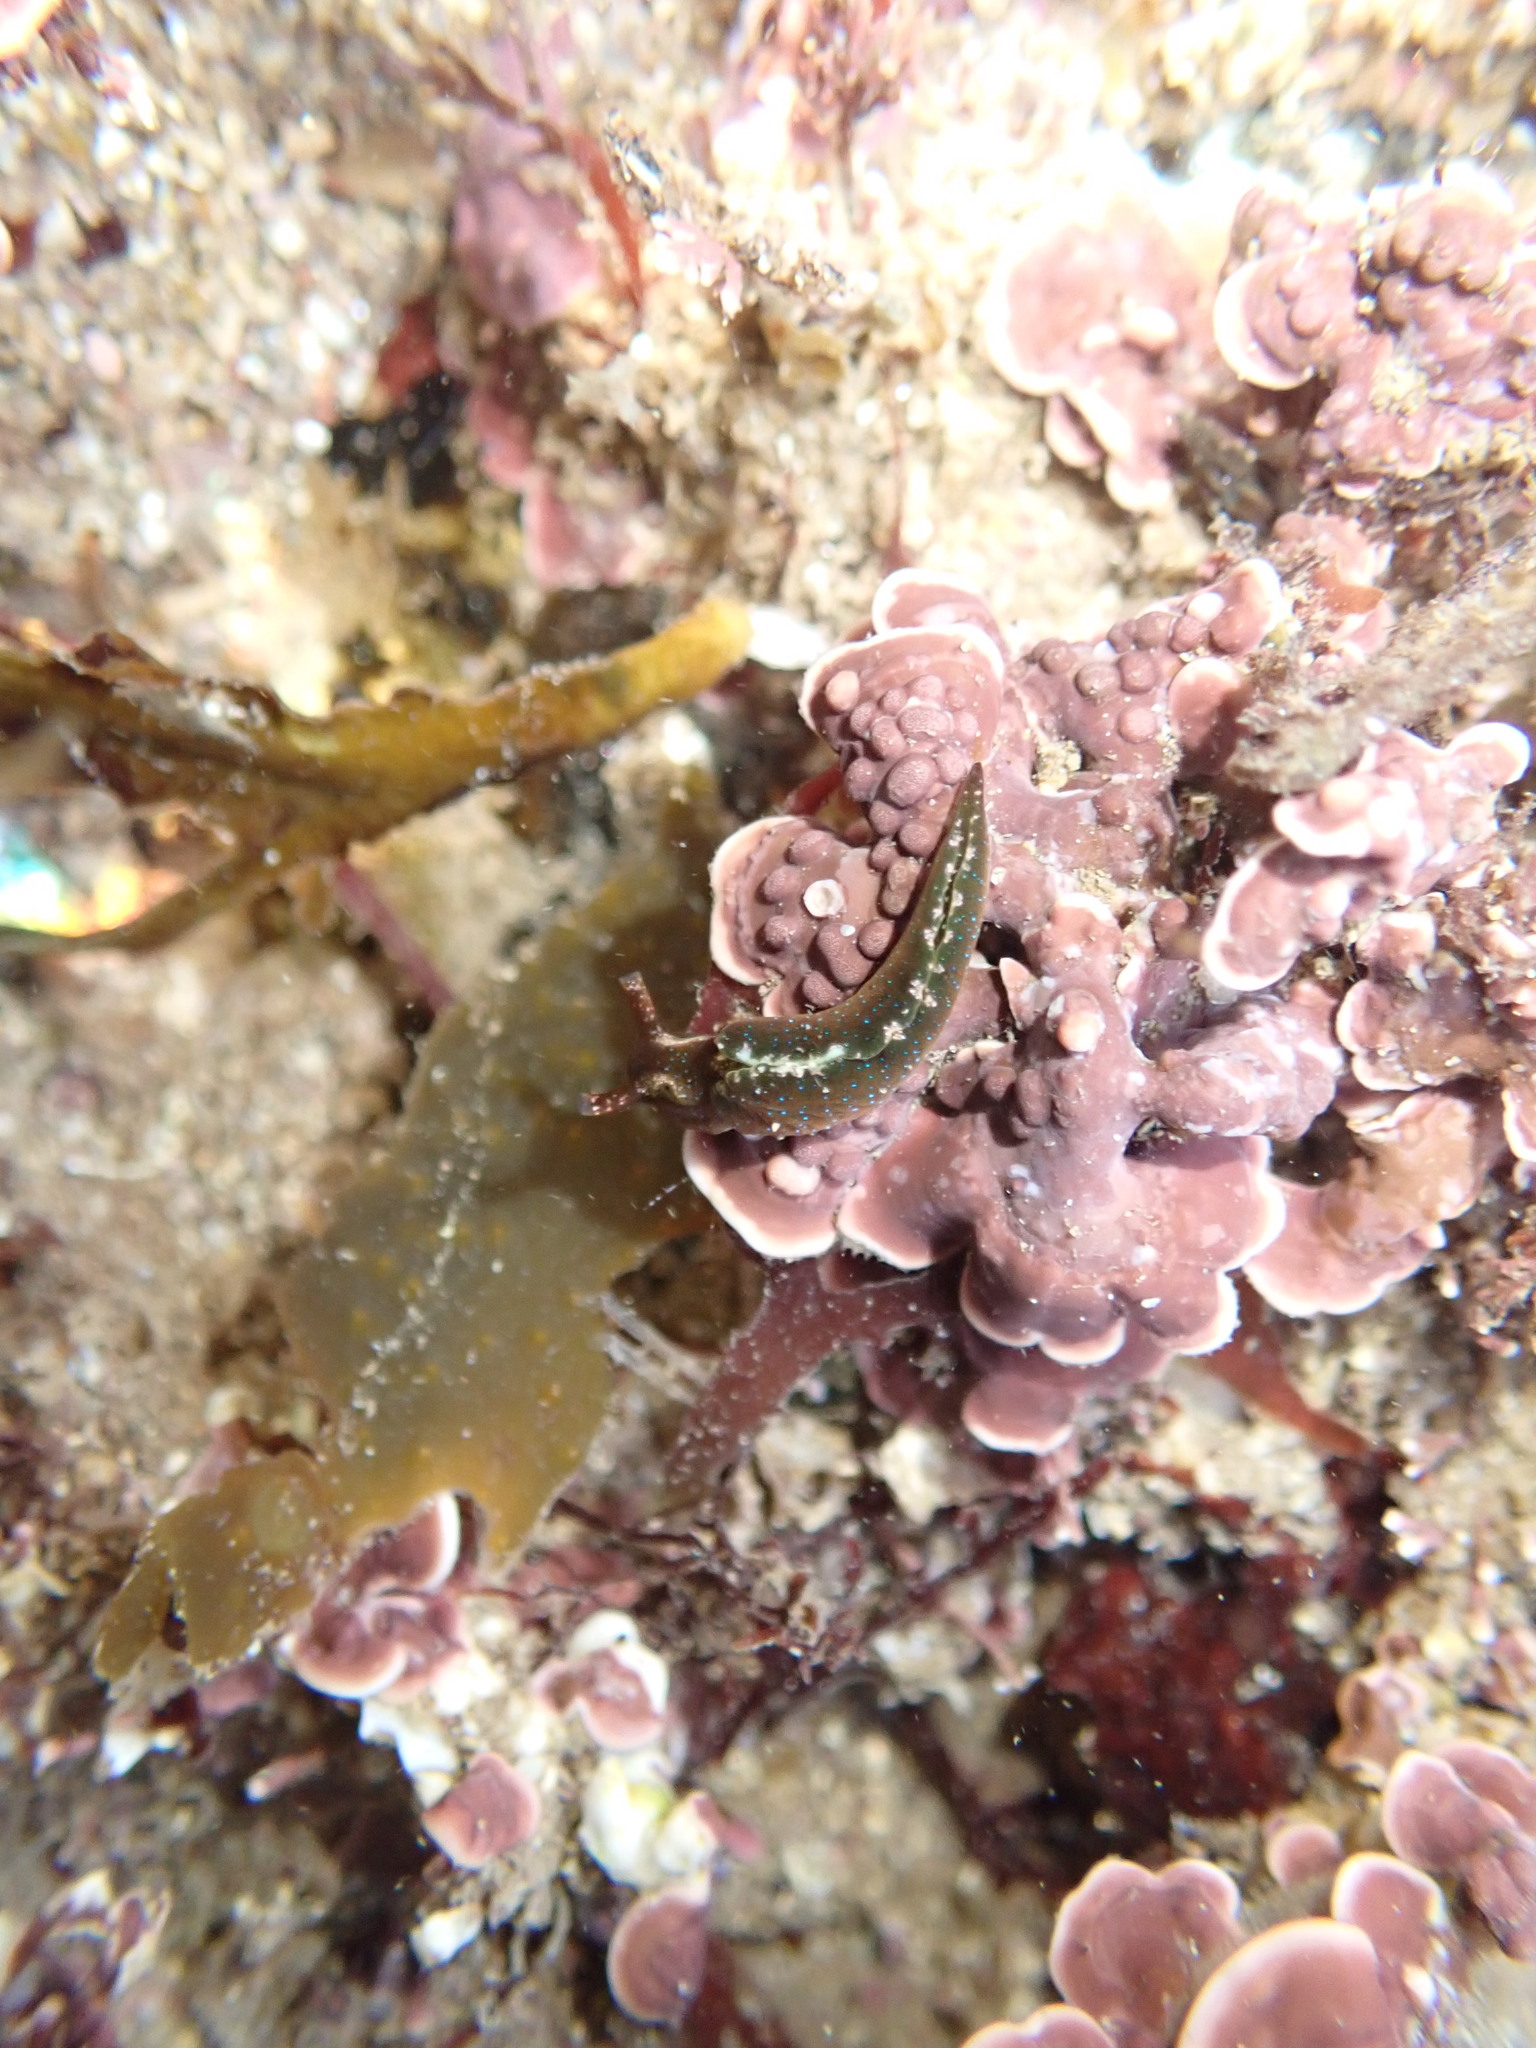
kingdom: Animalia
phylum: Mollusca
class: Gastropoda
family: Plakobranchidae
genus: Elysia
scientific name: Elysia viridis
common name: Green elysia
